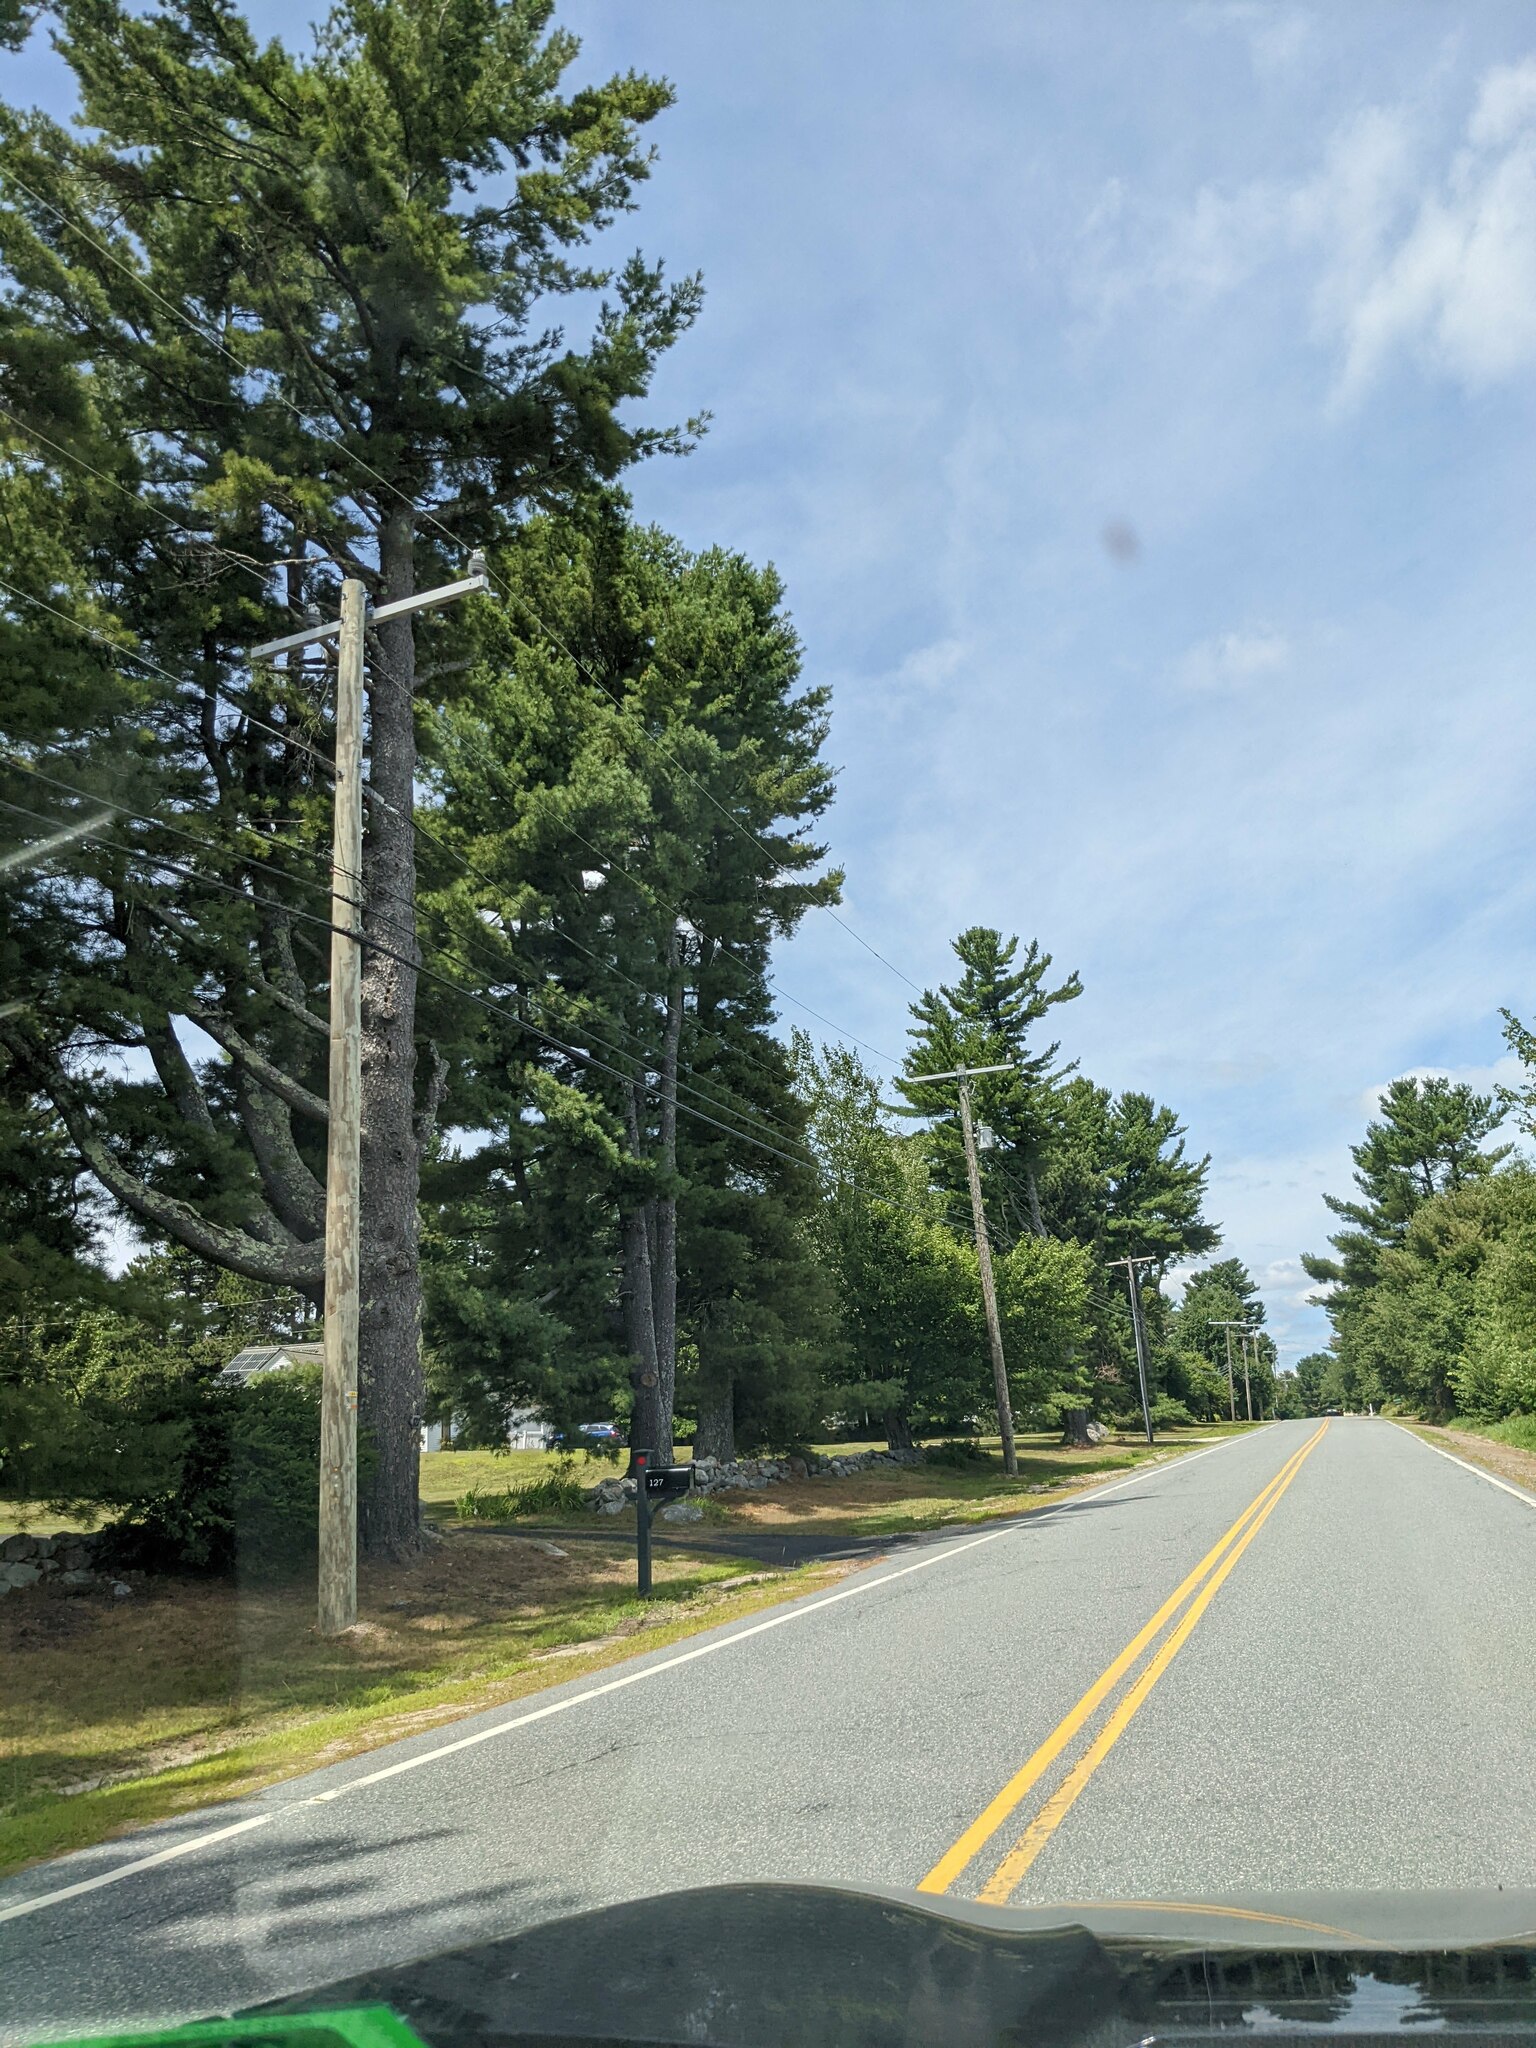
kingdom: Plantae
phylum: Tracheophyta
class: Pinopsida
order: Pinales
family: Pinaceae
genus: Pinus
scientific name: Pinus strobus
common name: Weymouth pine
